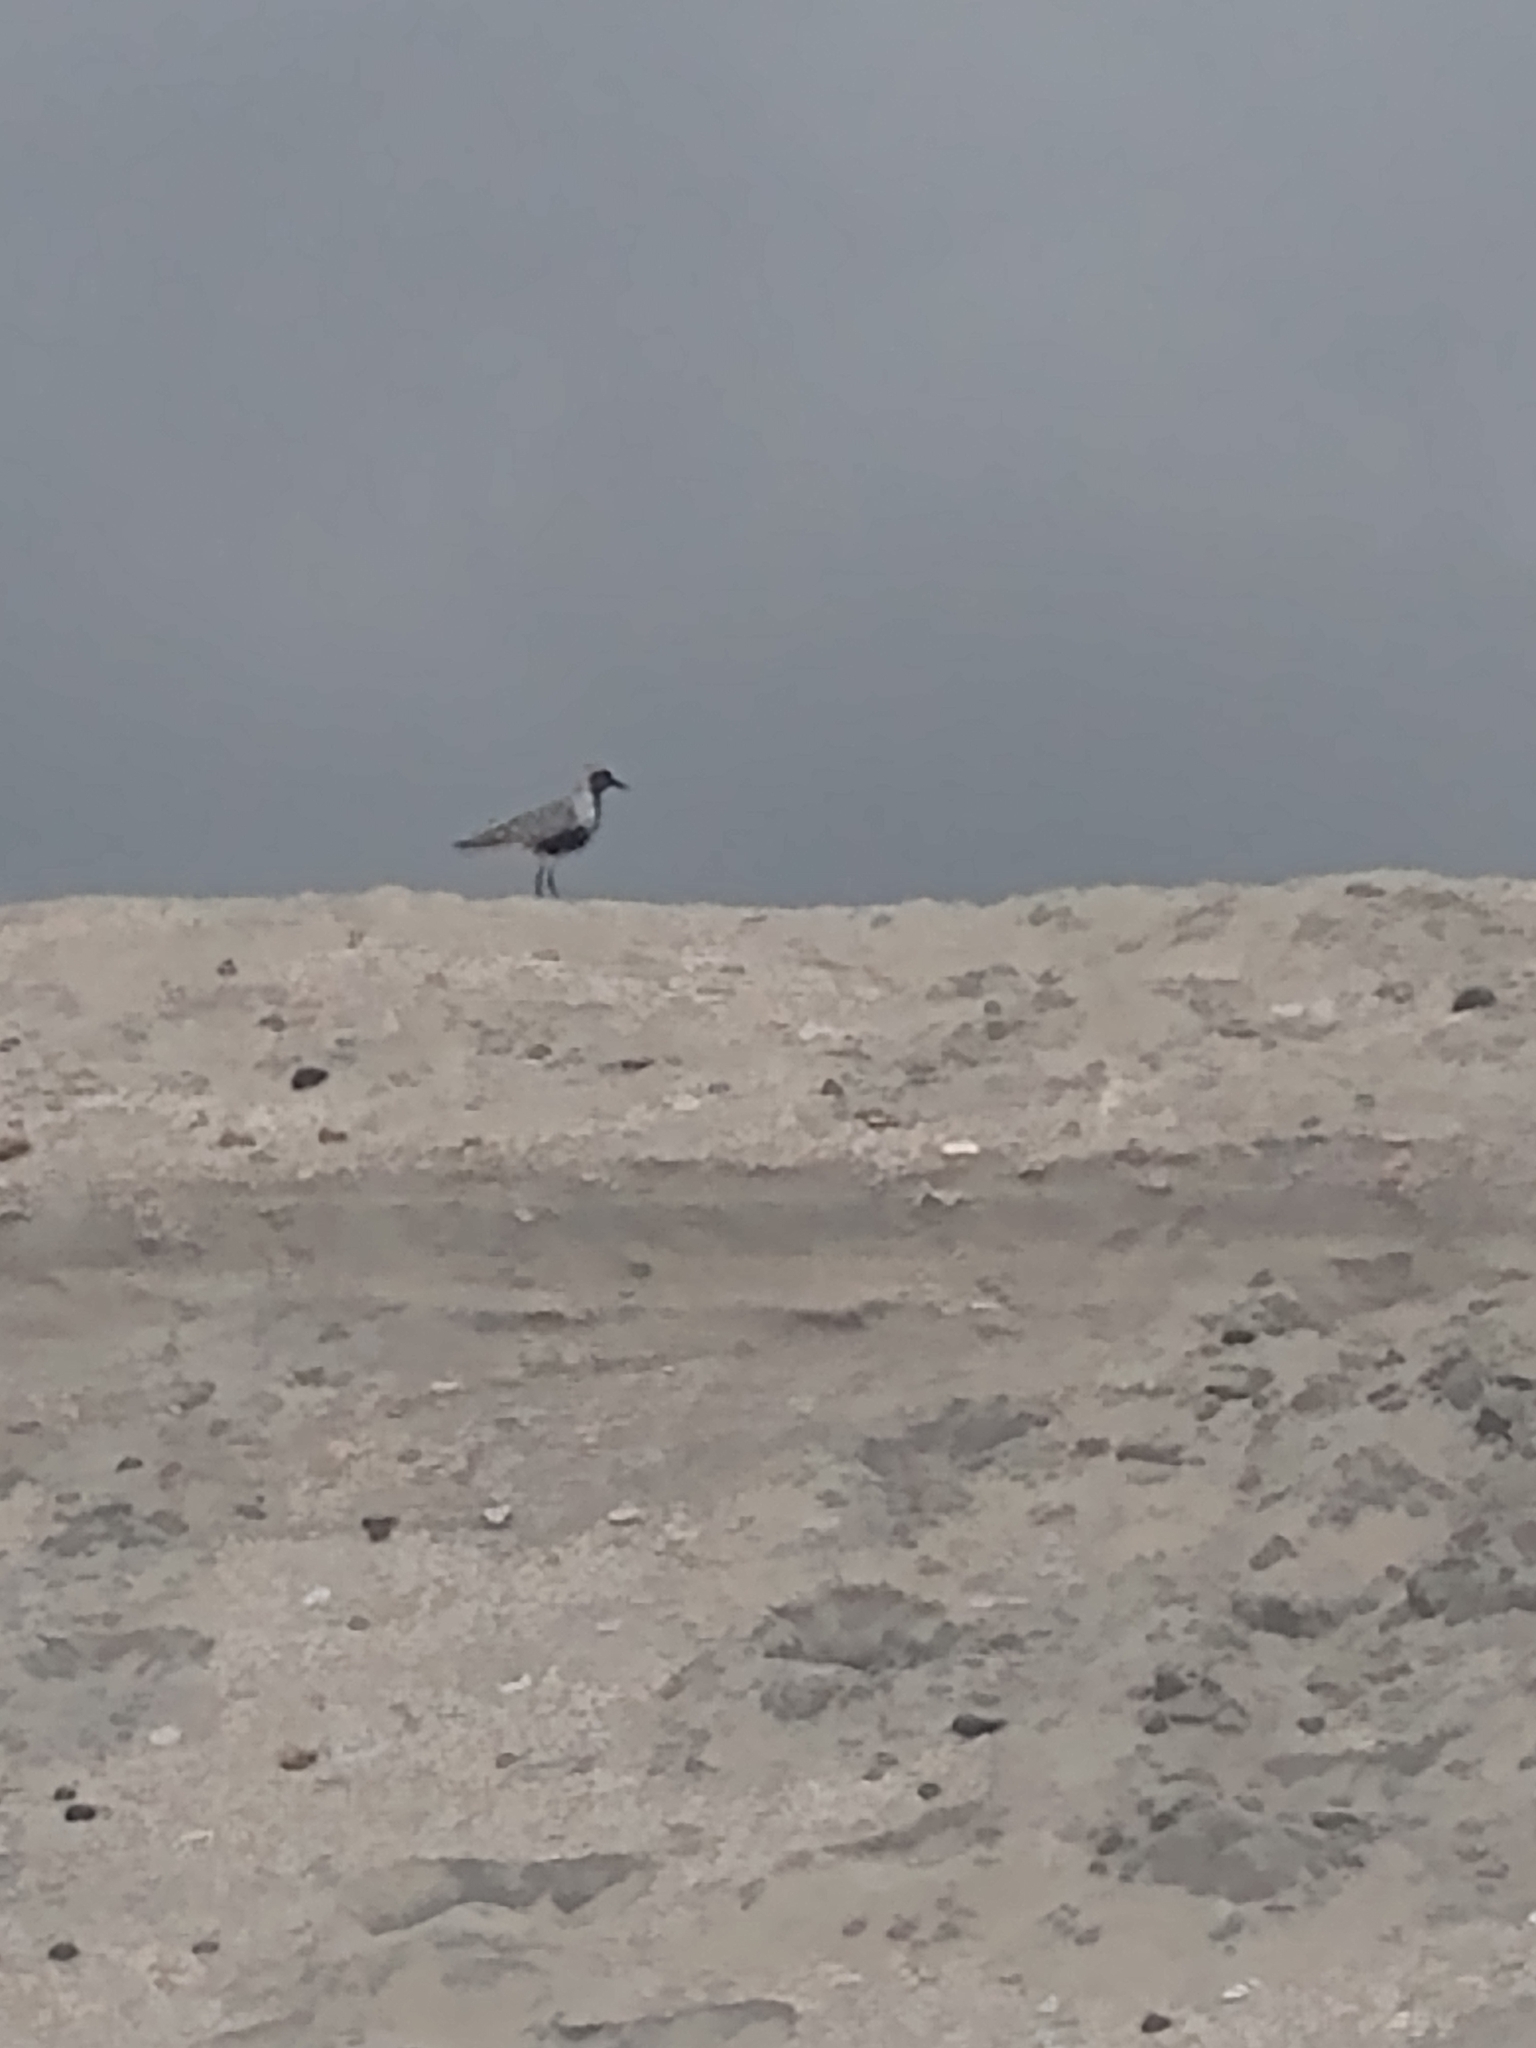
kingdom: Animalia
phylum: Chordata
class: Aves
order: Charadriiformes
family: Charadriidae
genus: Pluvialis
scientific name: Pluvialis squatarola
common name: Grey plover
